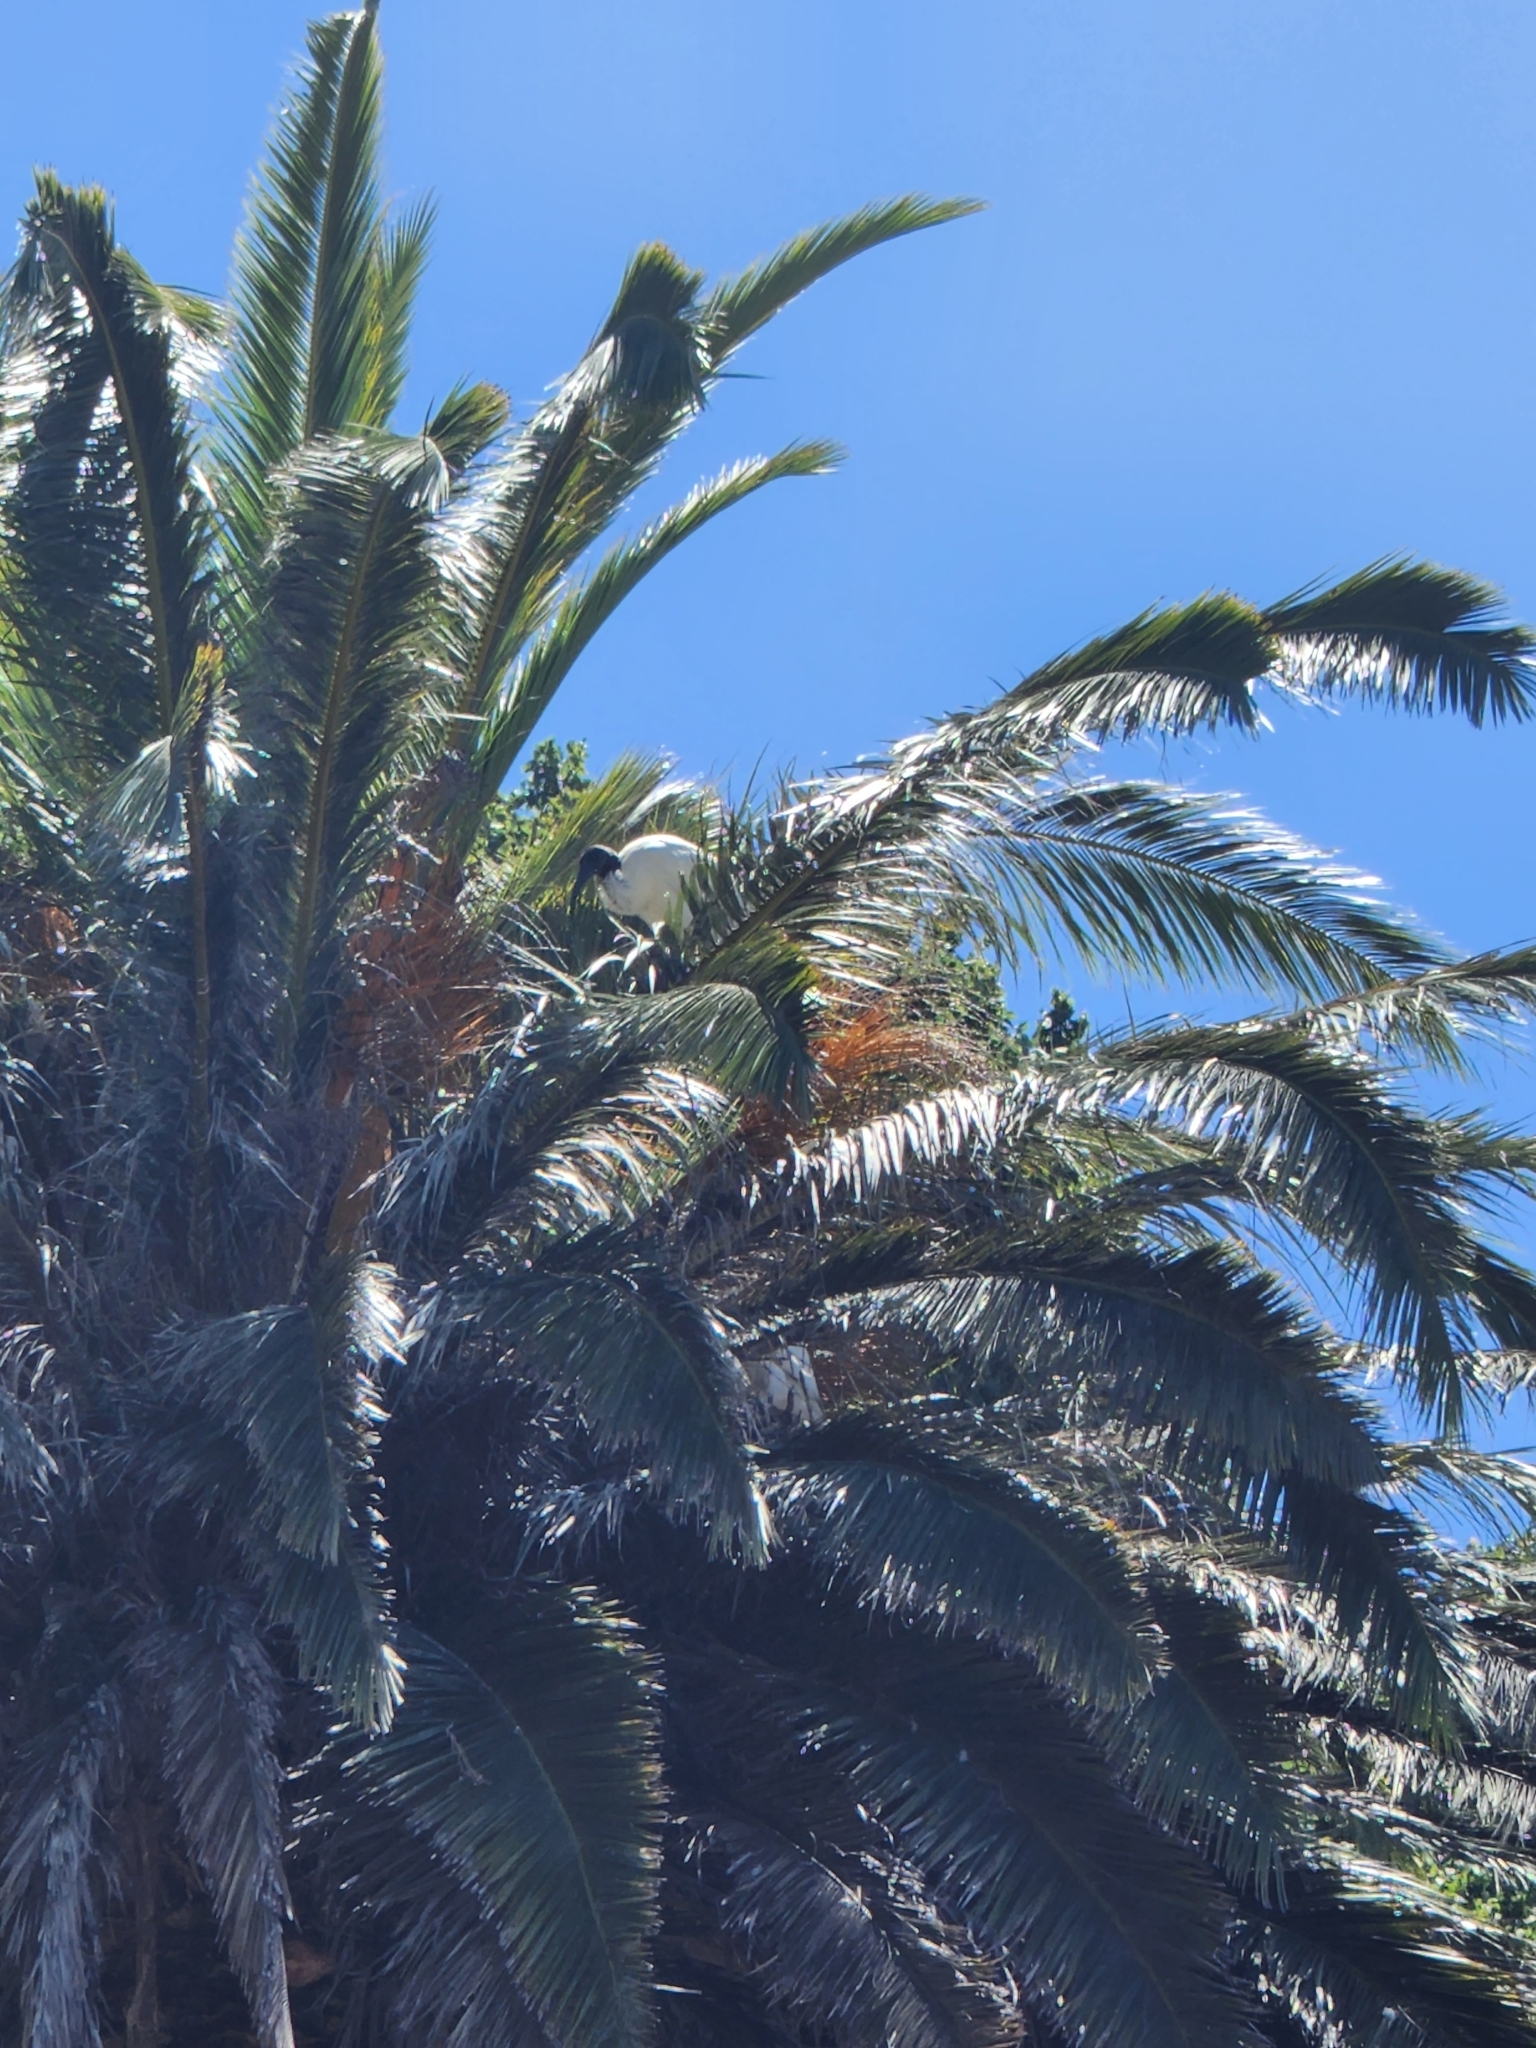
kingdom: Animalia
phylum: Chordata
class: Aves
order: Pelecaniformes
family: Threskiornithidae
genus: Threskiornis
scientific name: Threskiornis molucca
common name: Australian white ibis
